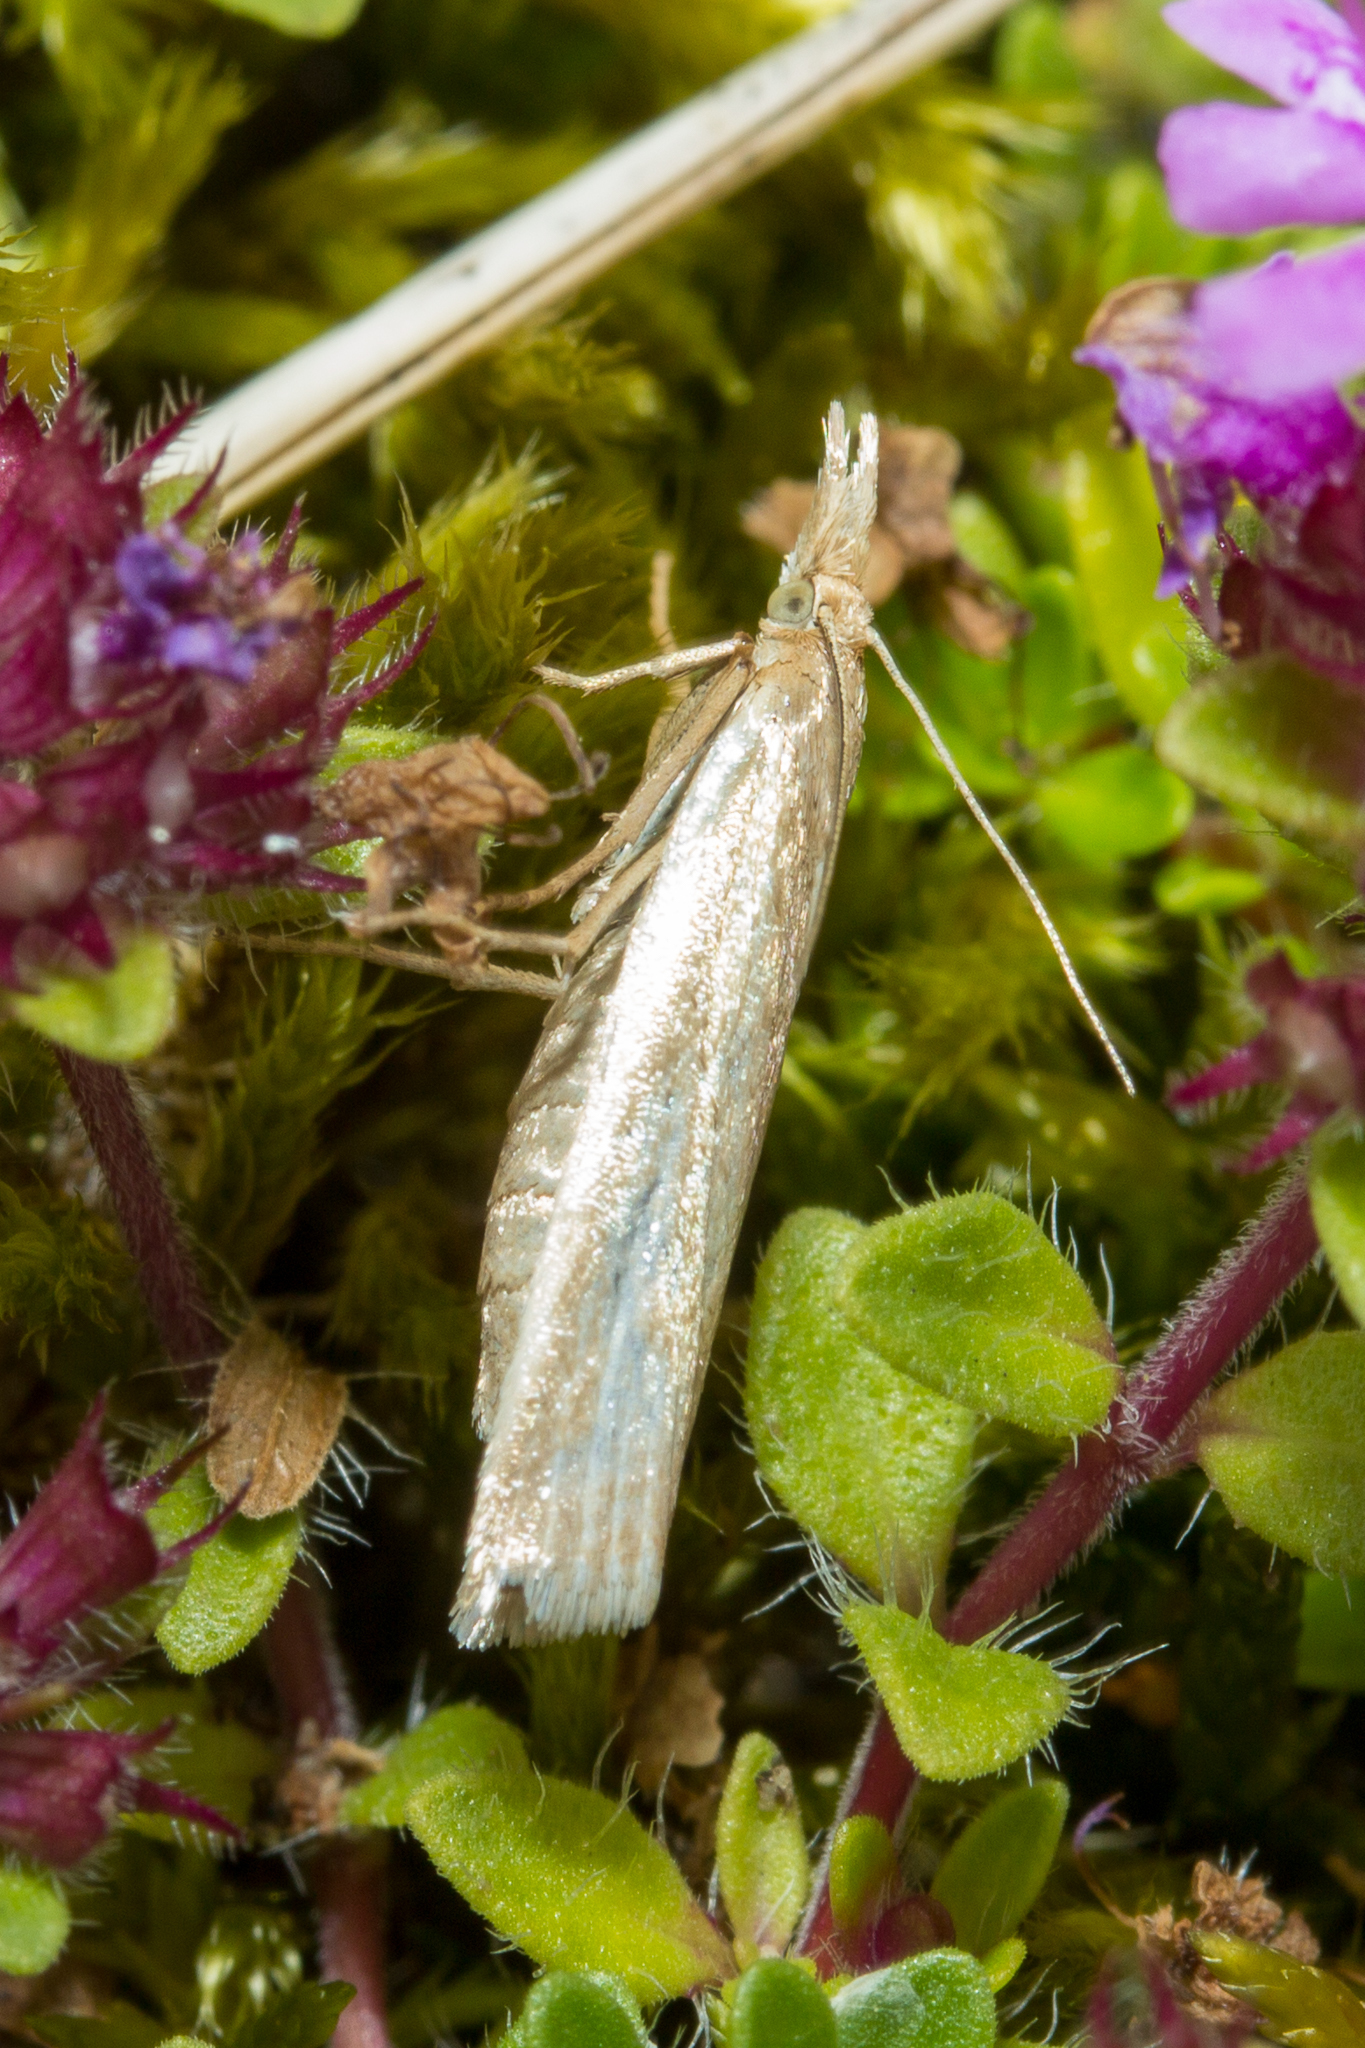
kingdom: Animalia
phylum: Arthropoda
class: Insecta
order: Lepidoptera
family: Crambidae
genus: Crambus
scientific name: Crambus perlellus
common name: Yellow satin veneer
